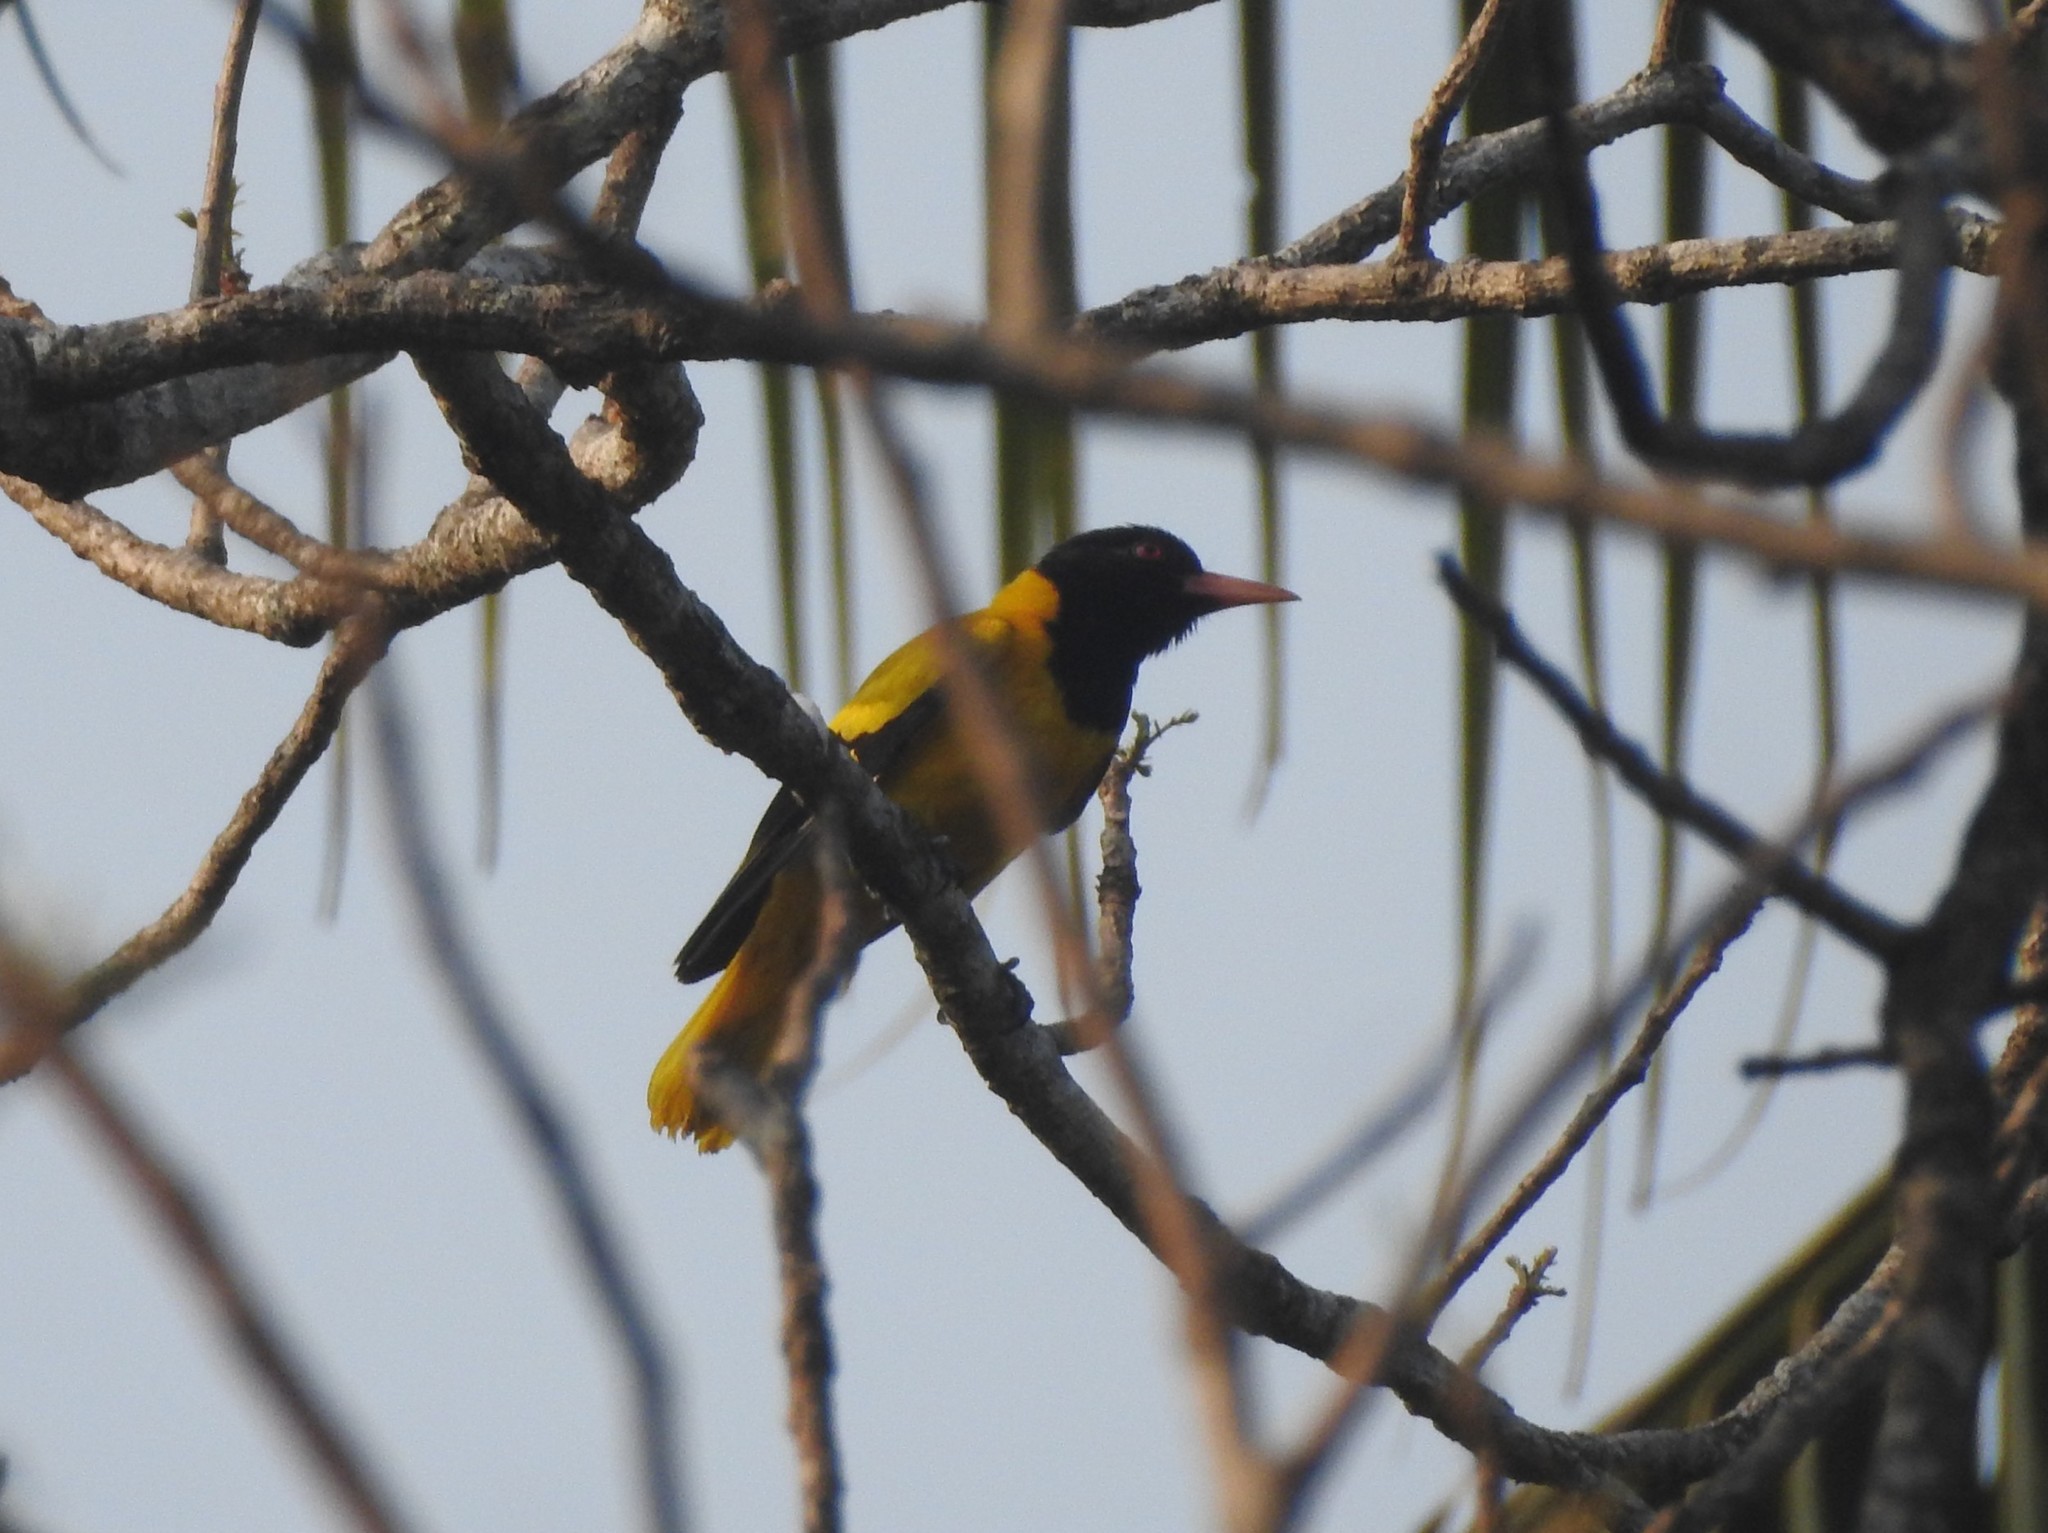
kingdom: Animalia
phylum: Chordata
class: Aves
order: Passeriformes
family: Oriolidae
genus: Oriolus
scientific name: Oriolus xanthornus
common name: Black-hooded oriole
